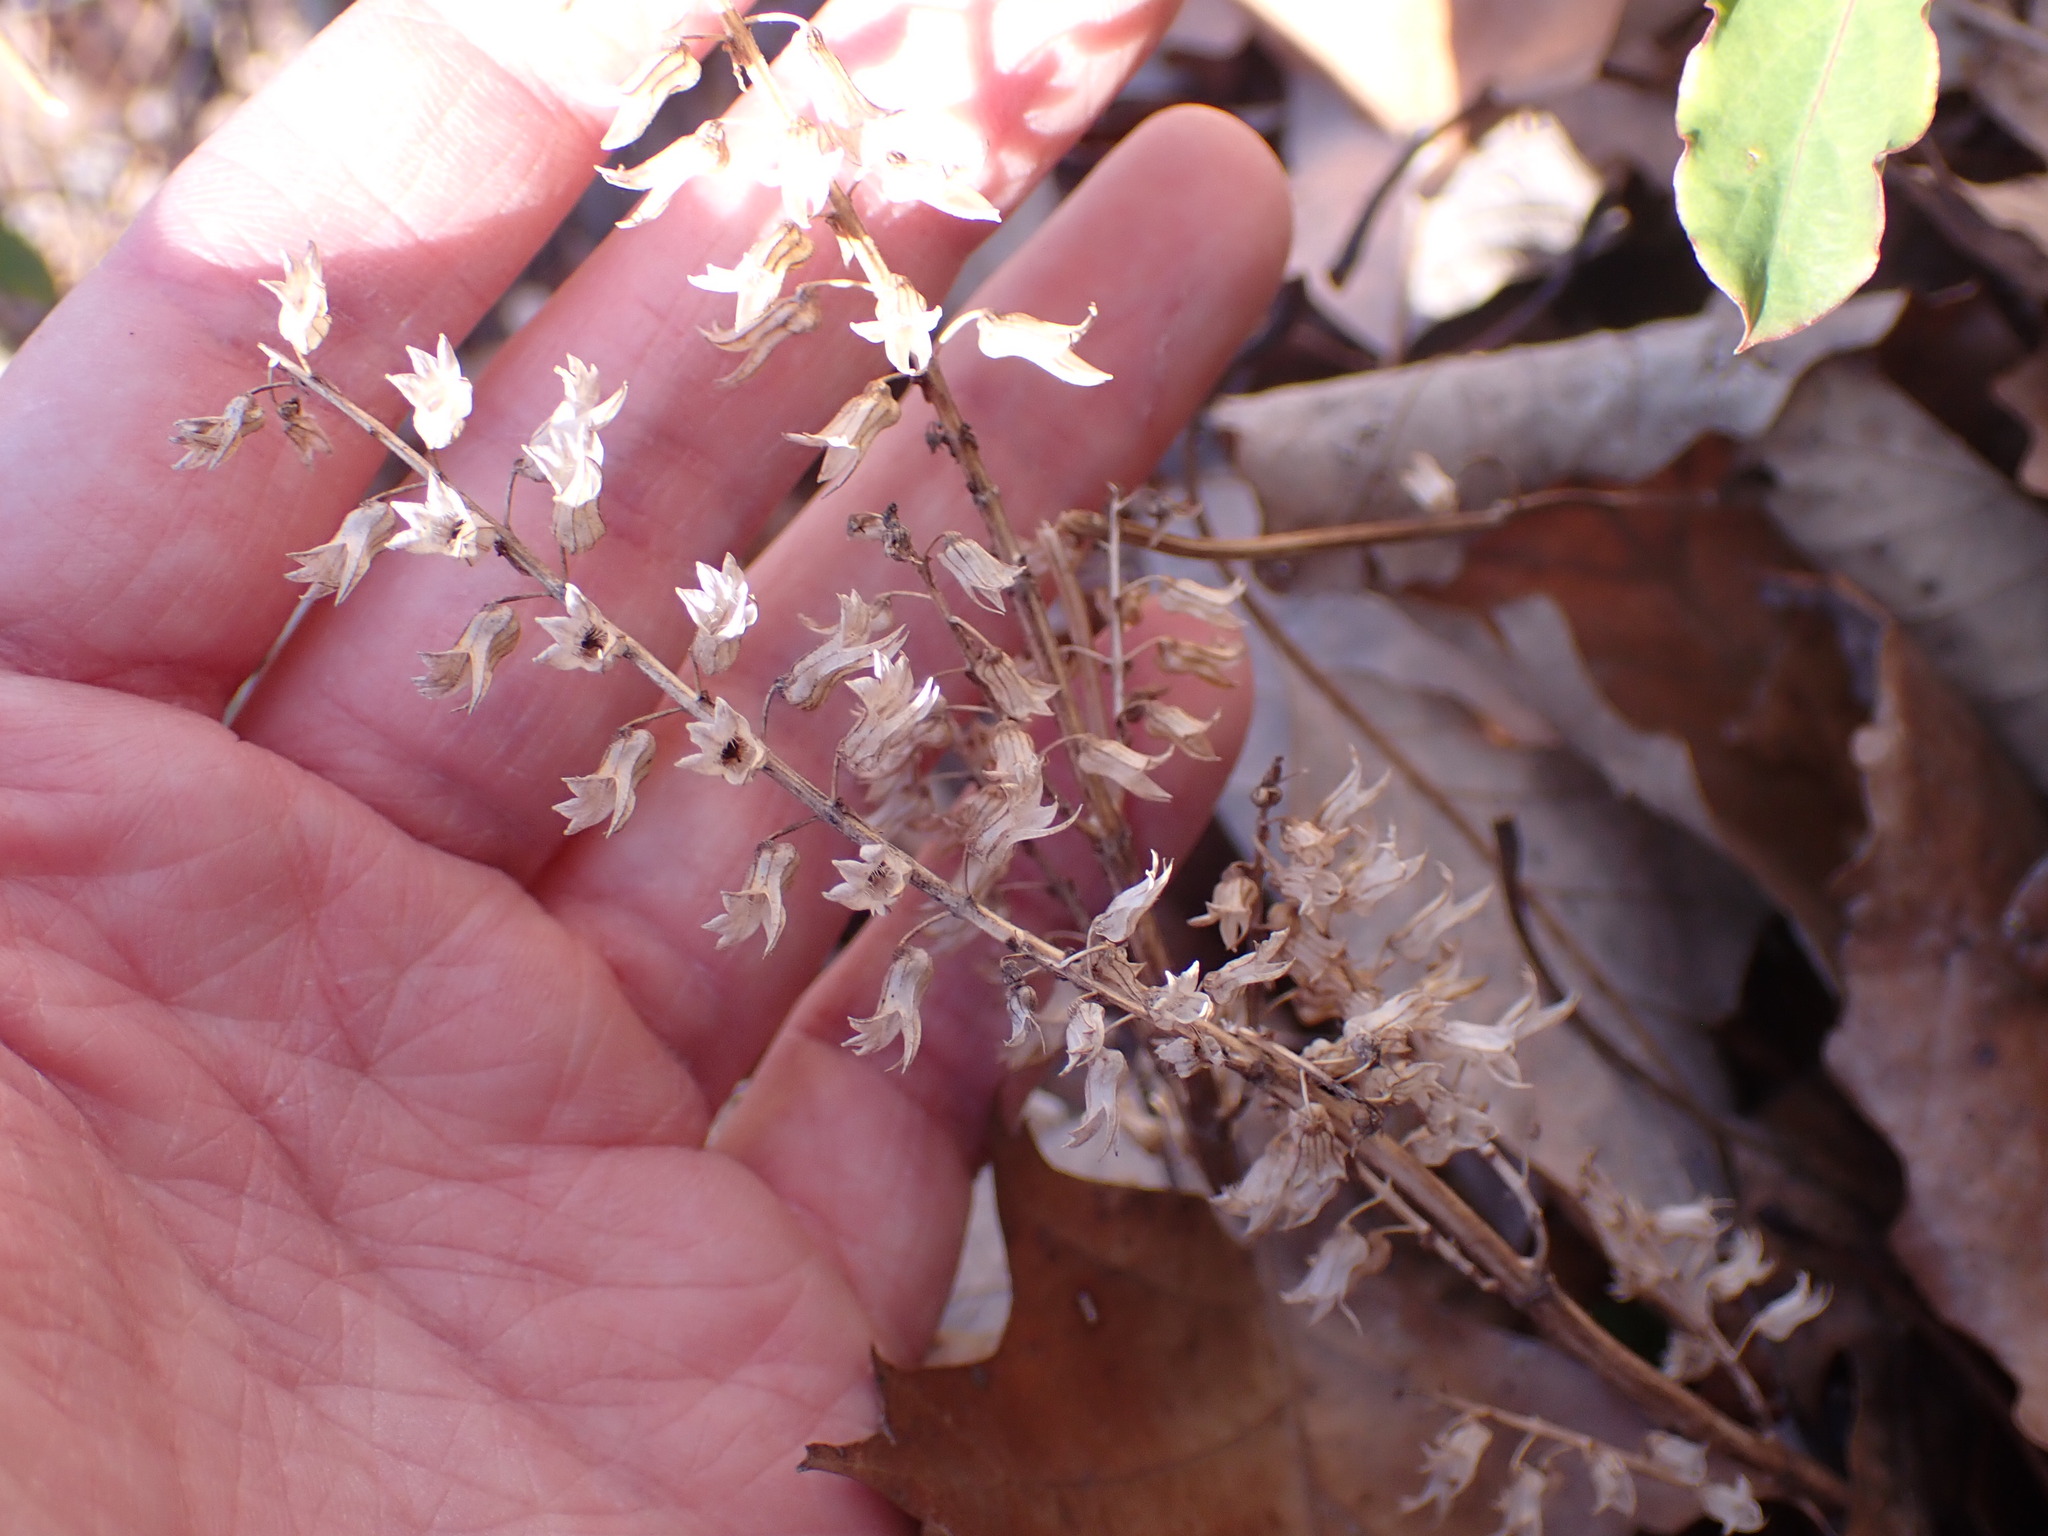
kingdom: Plantae
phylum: Tracheophyta
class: Magnoliopsida
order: Lamiales
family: Lamiaceae
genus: Perilla
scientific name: Perilla frutescens
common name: Perilla
